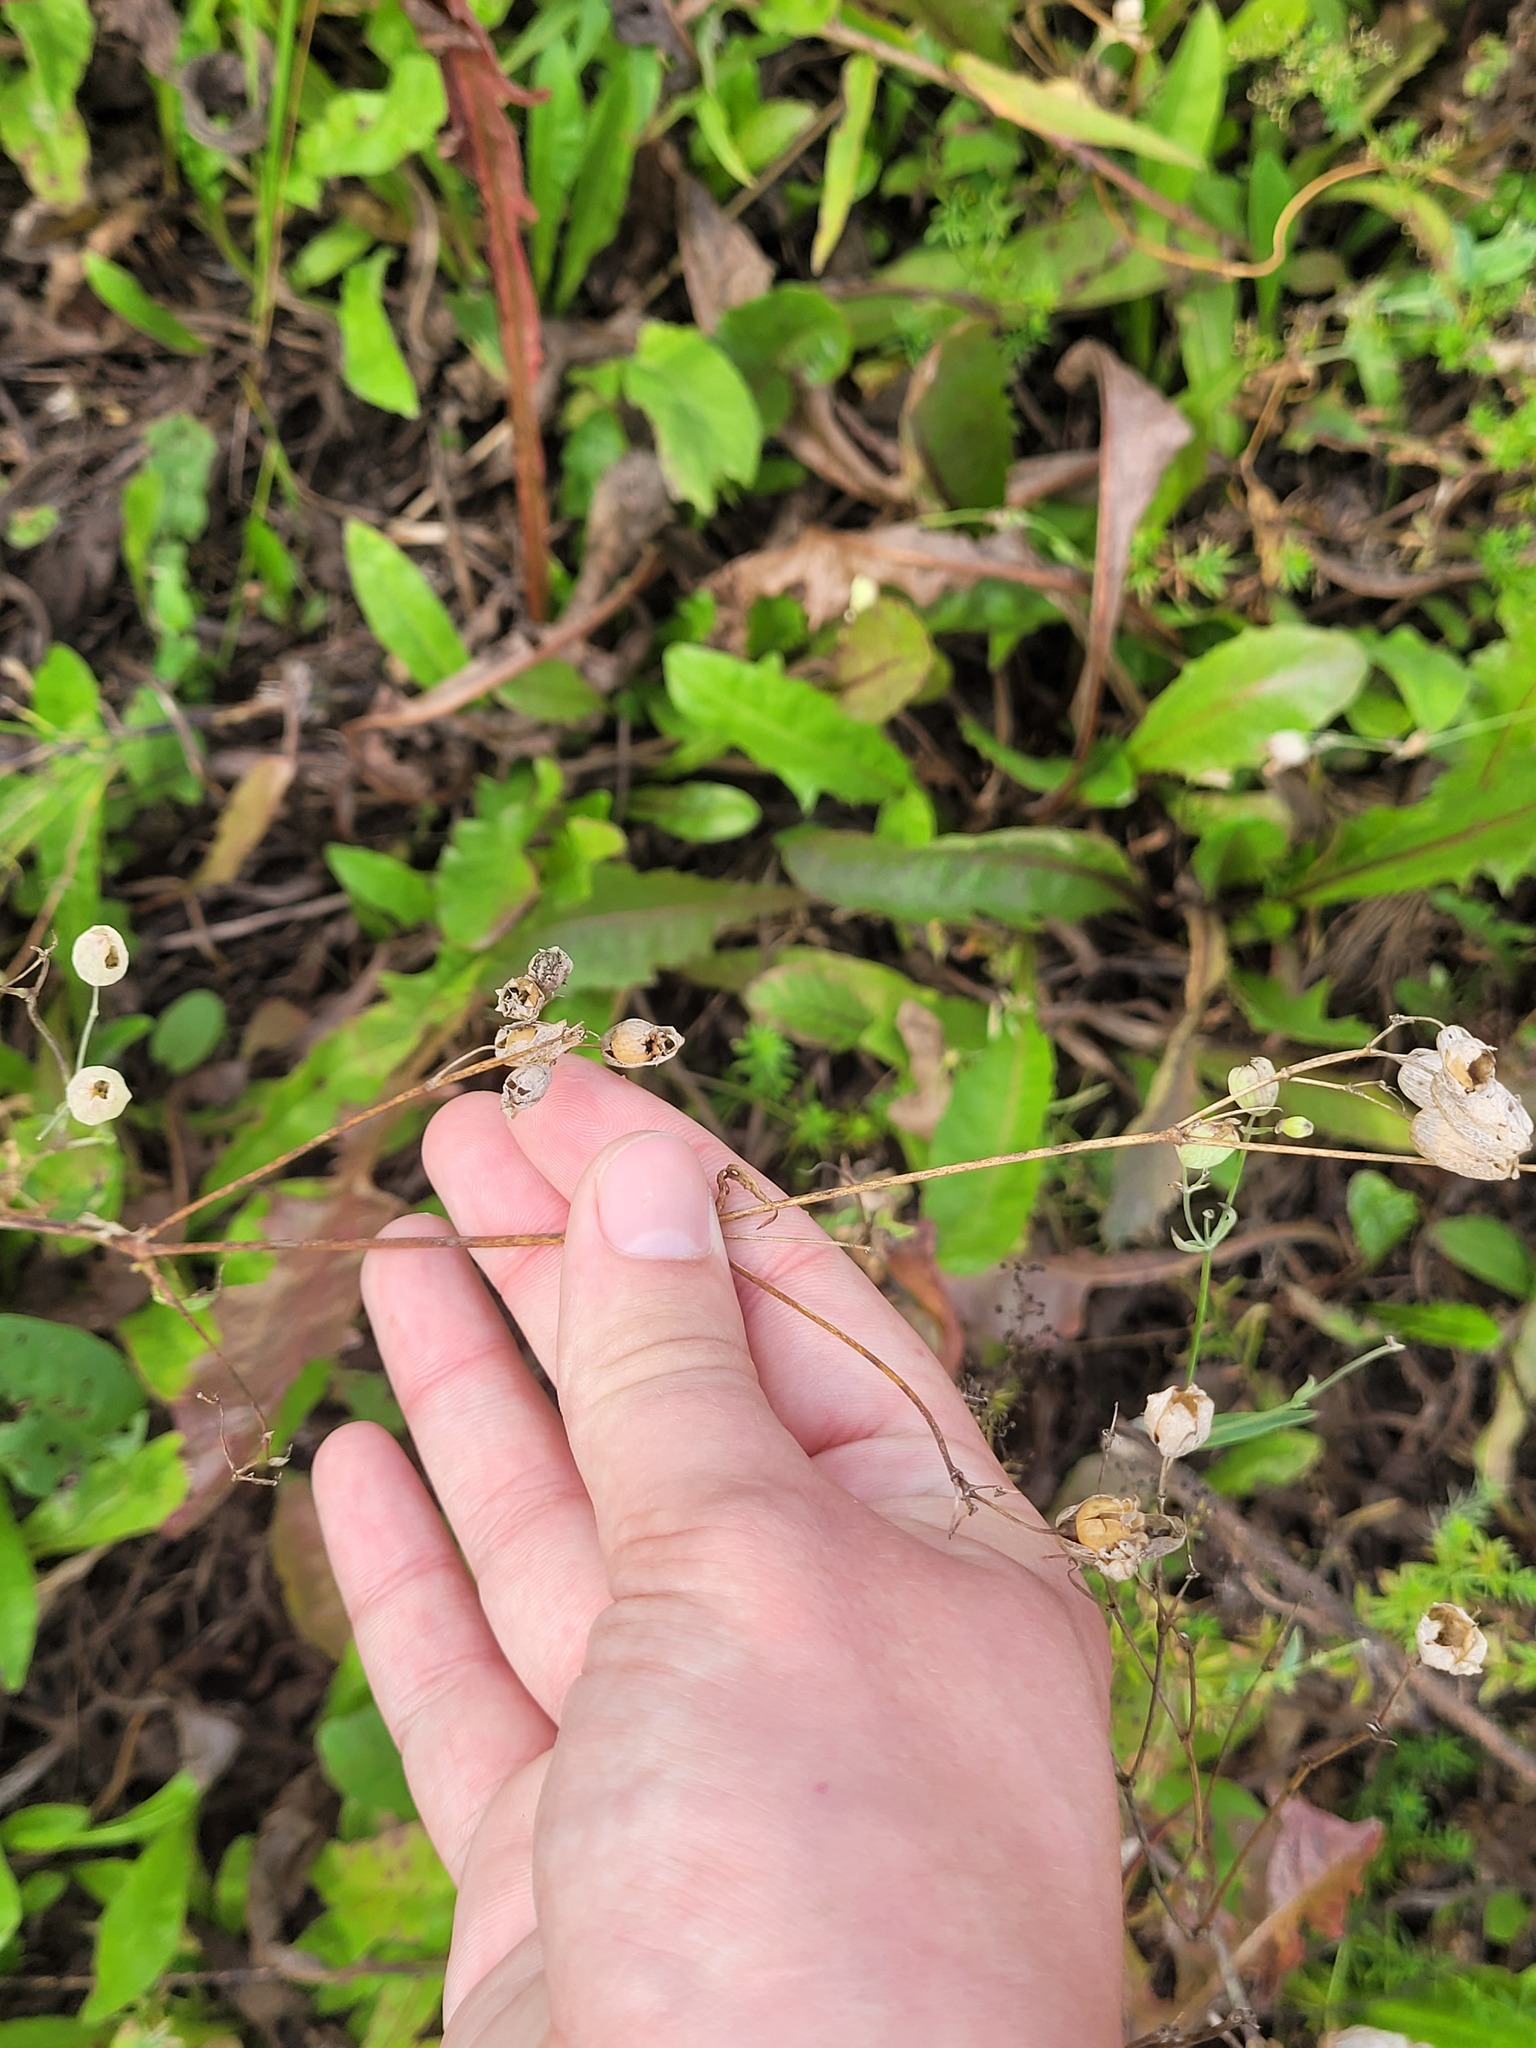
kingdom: Plantae
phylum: Tracheophyta
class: Magnoliopsida
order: Caryophyllales
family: Caryophyllaceae
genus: Silene
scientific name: Silene vulgaris
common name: Bladder campion
